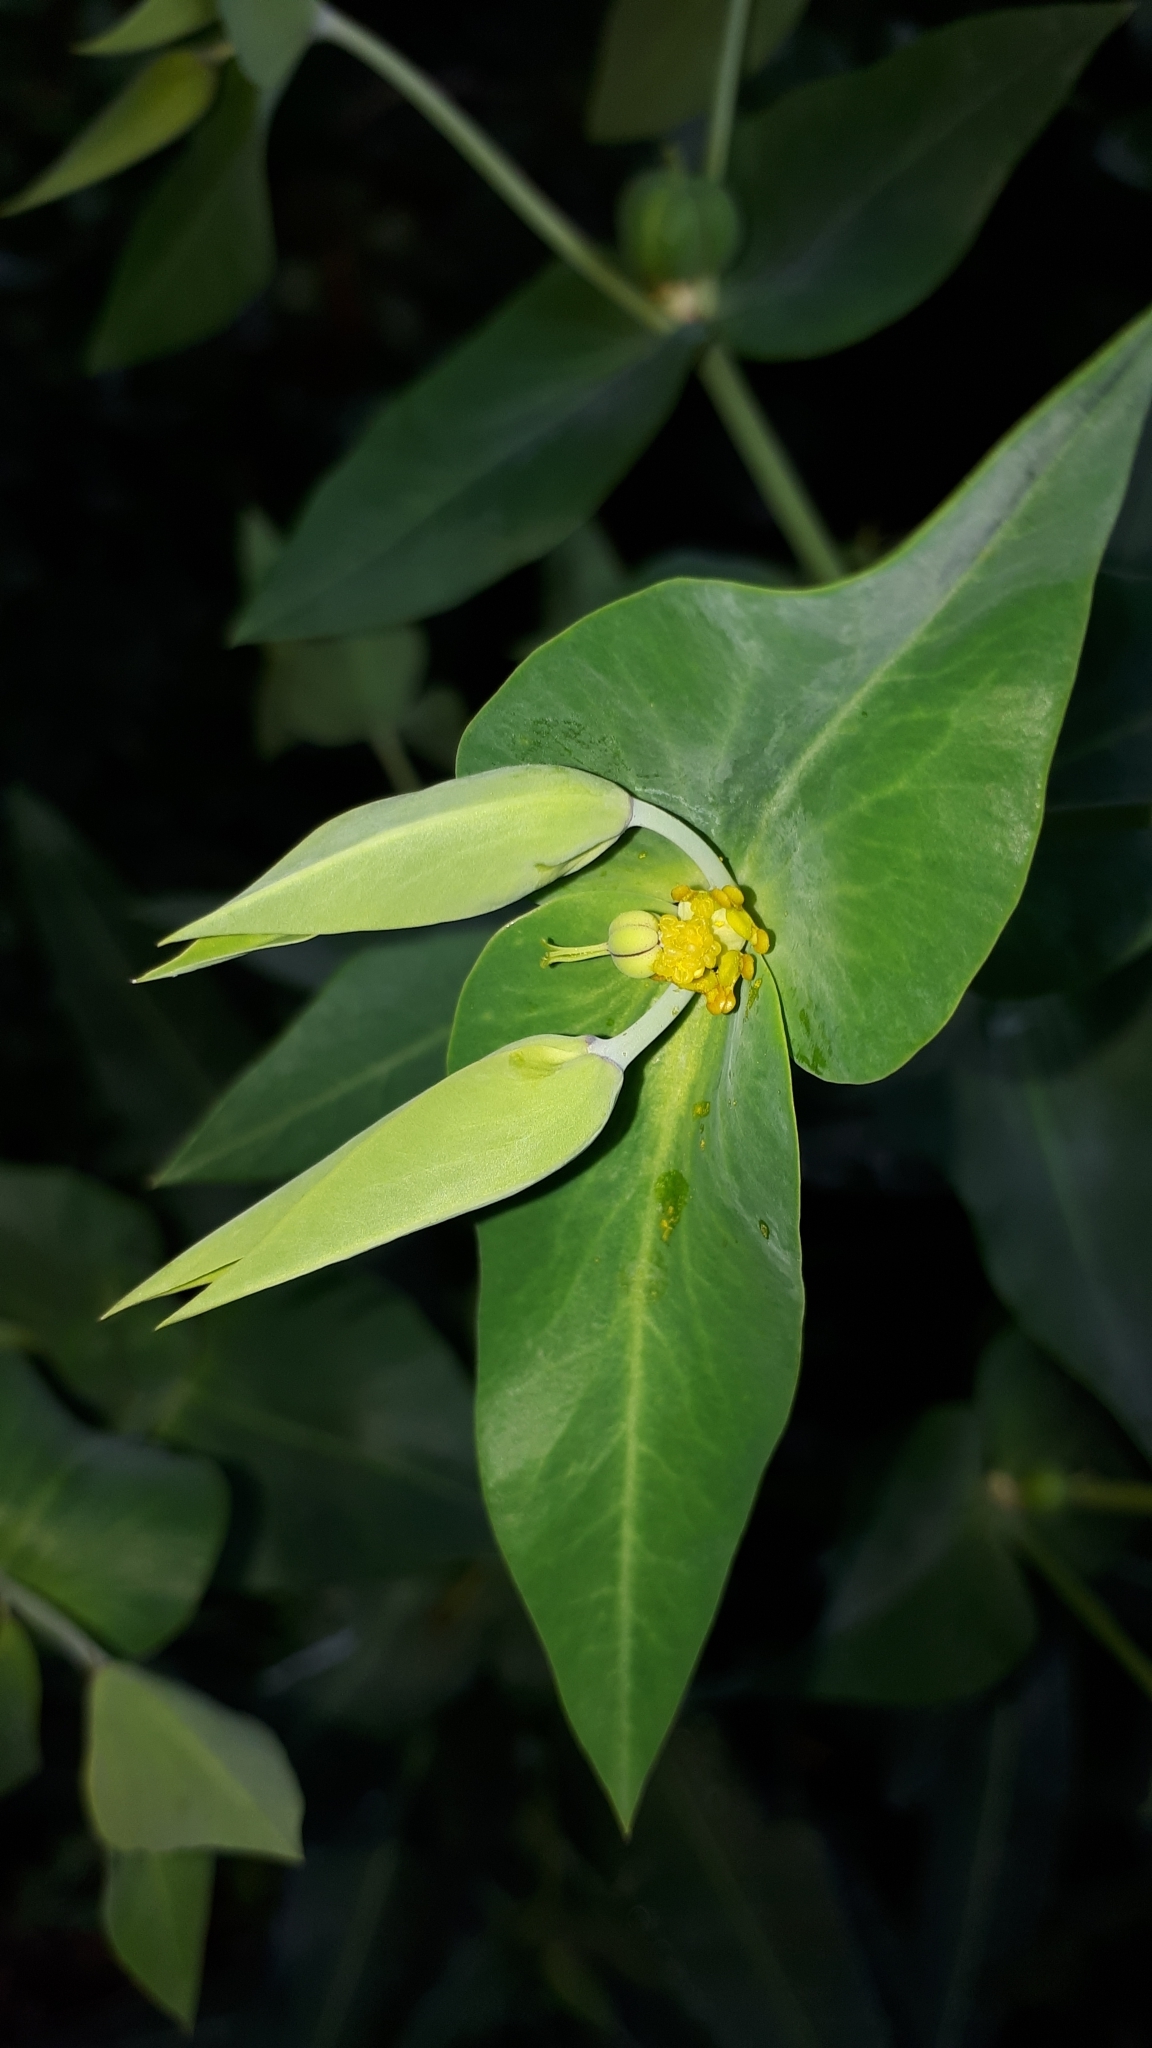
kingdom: Plantae
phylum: Tracheophyta
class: Magnoliopsida
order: Malpighiales
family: Euphorbiaceae
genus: Euphorbia
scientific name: Euphorbia lathyris
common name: Caper spurge
